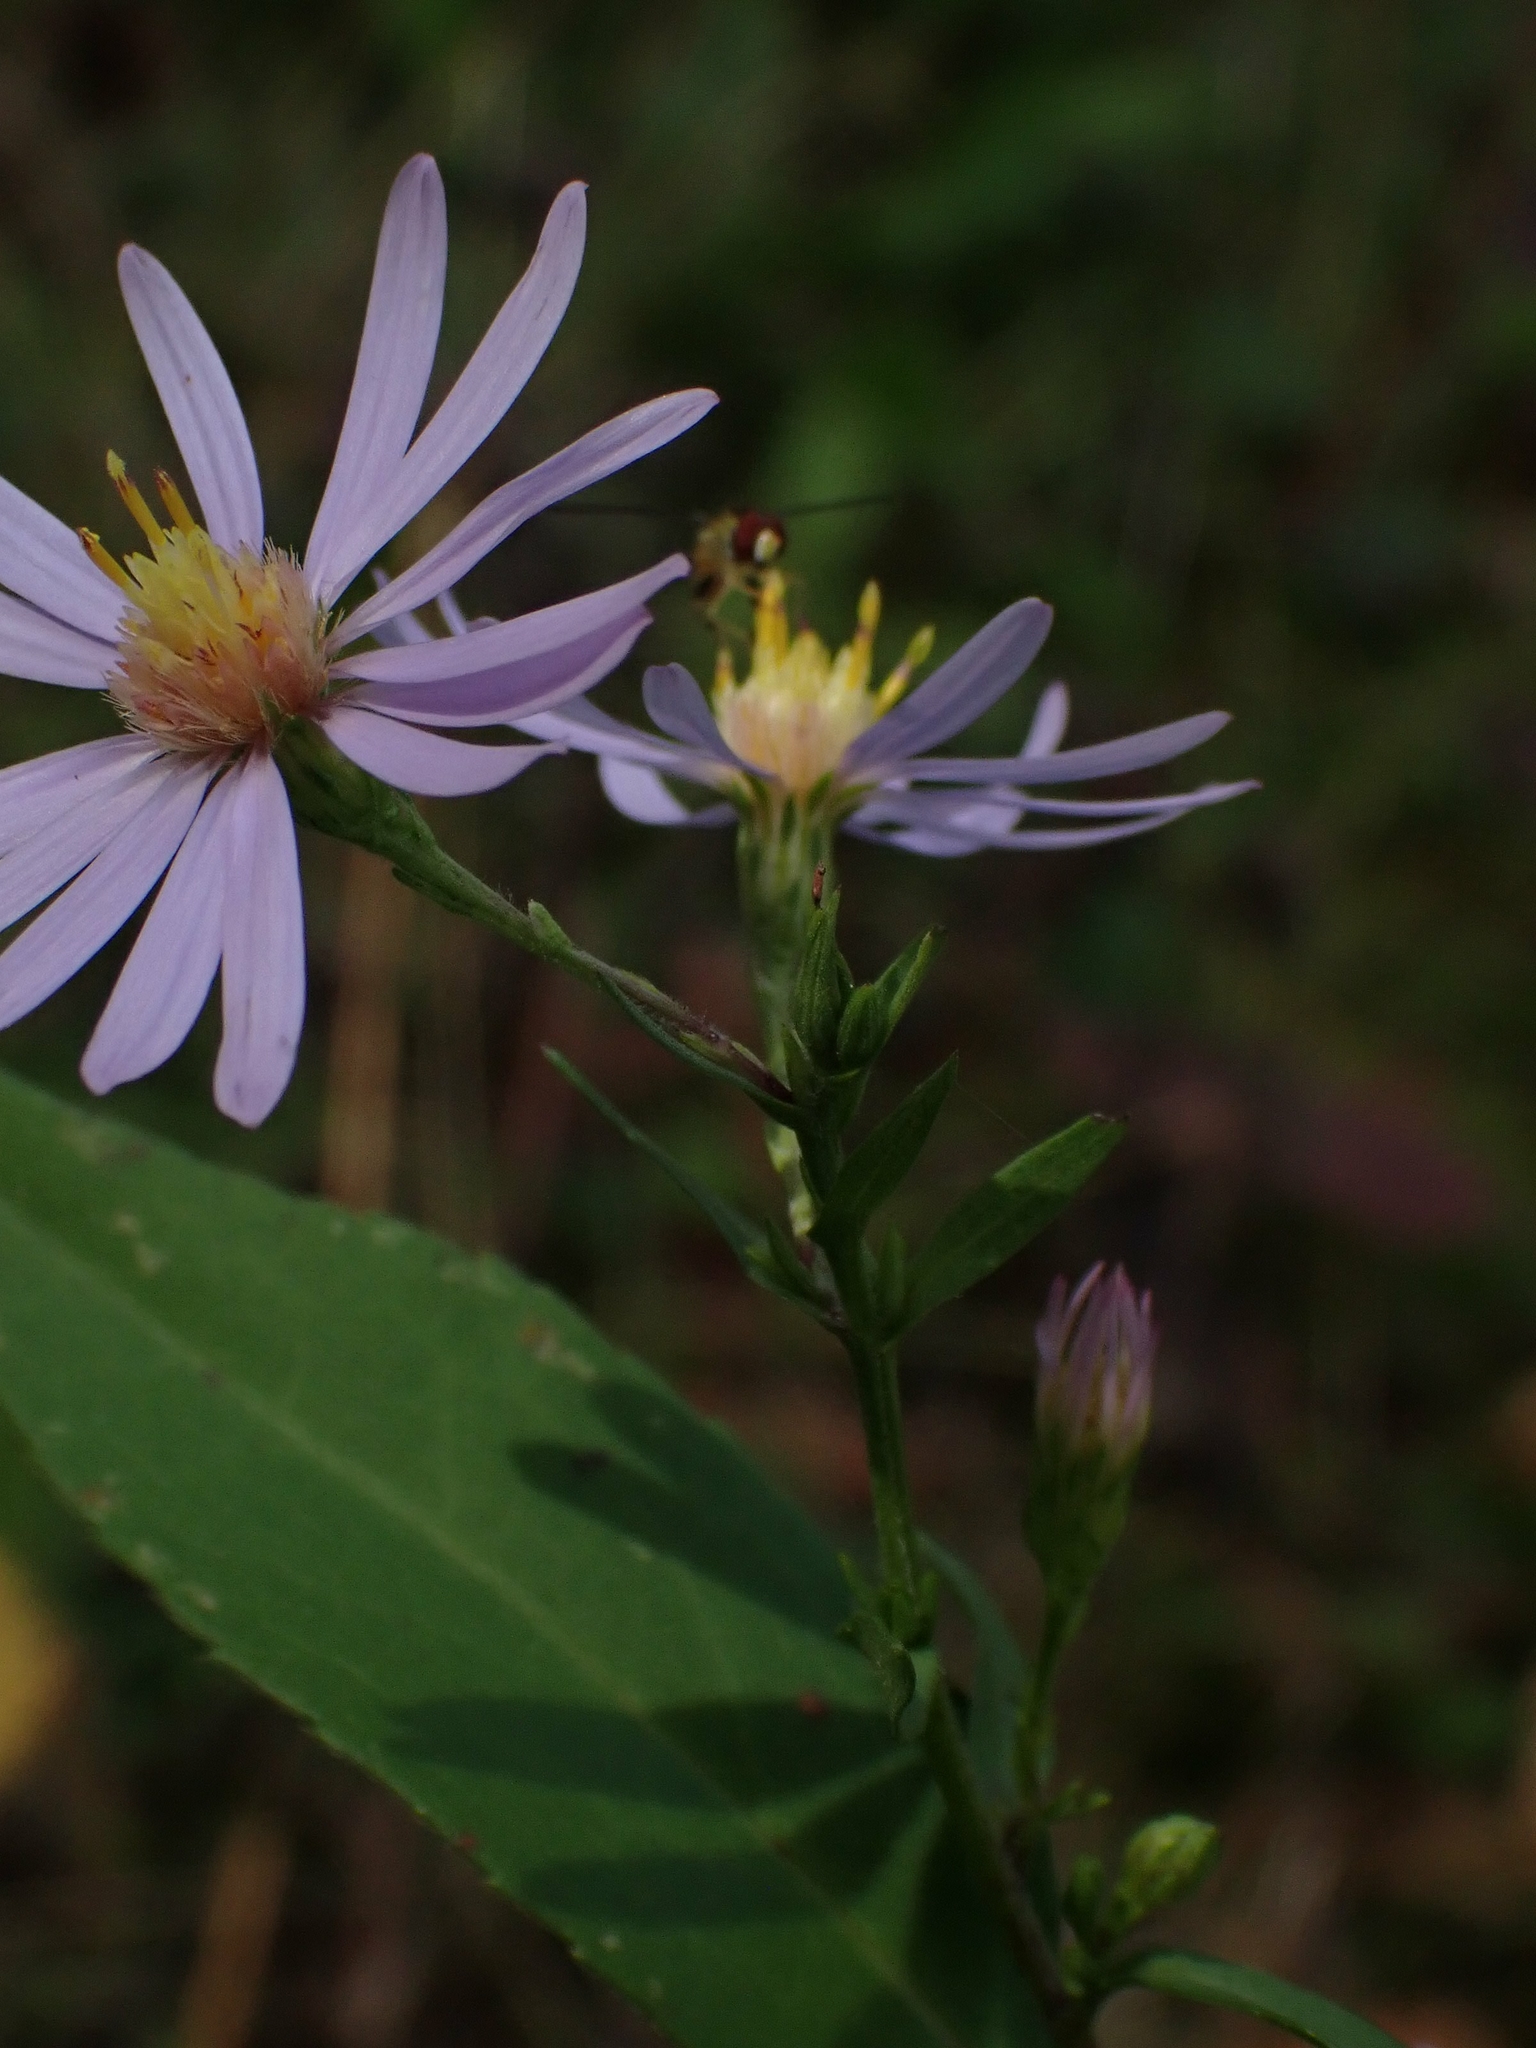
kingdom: Plantae
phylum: Tracheophyta
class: Magnoliopsida
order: Asterales
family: Asteraceae
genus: Symphyotrichum
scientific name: Symphyotrichum ciliolatum
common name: Fringed blue aster
